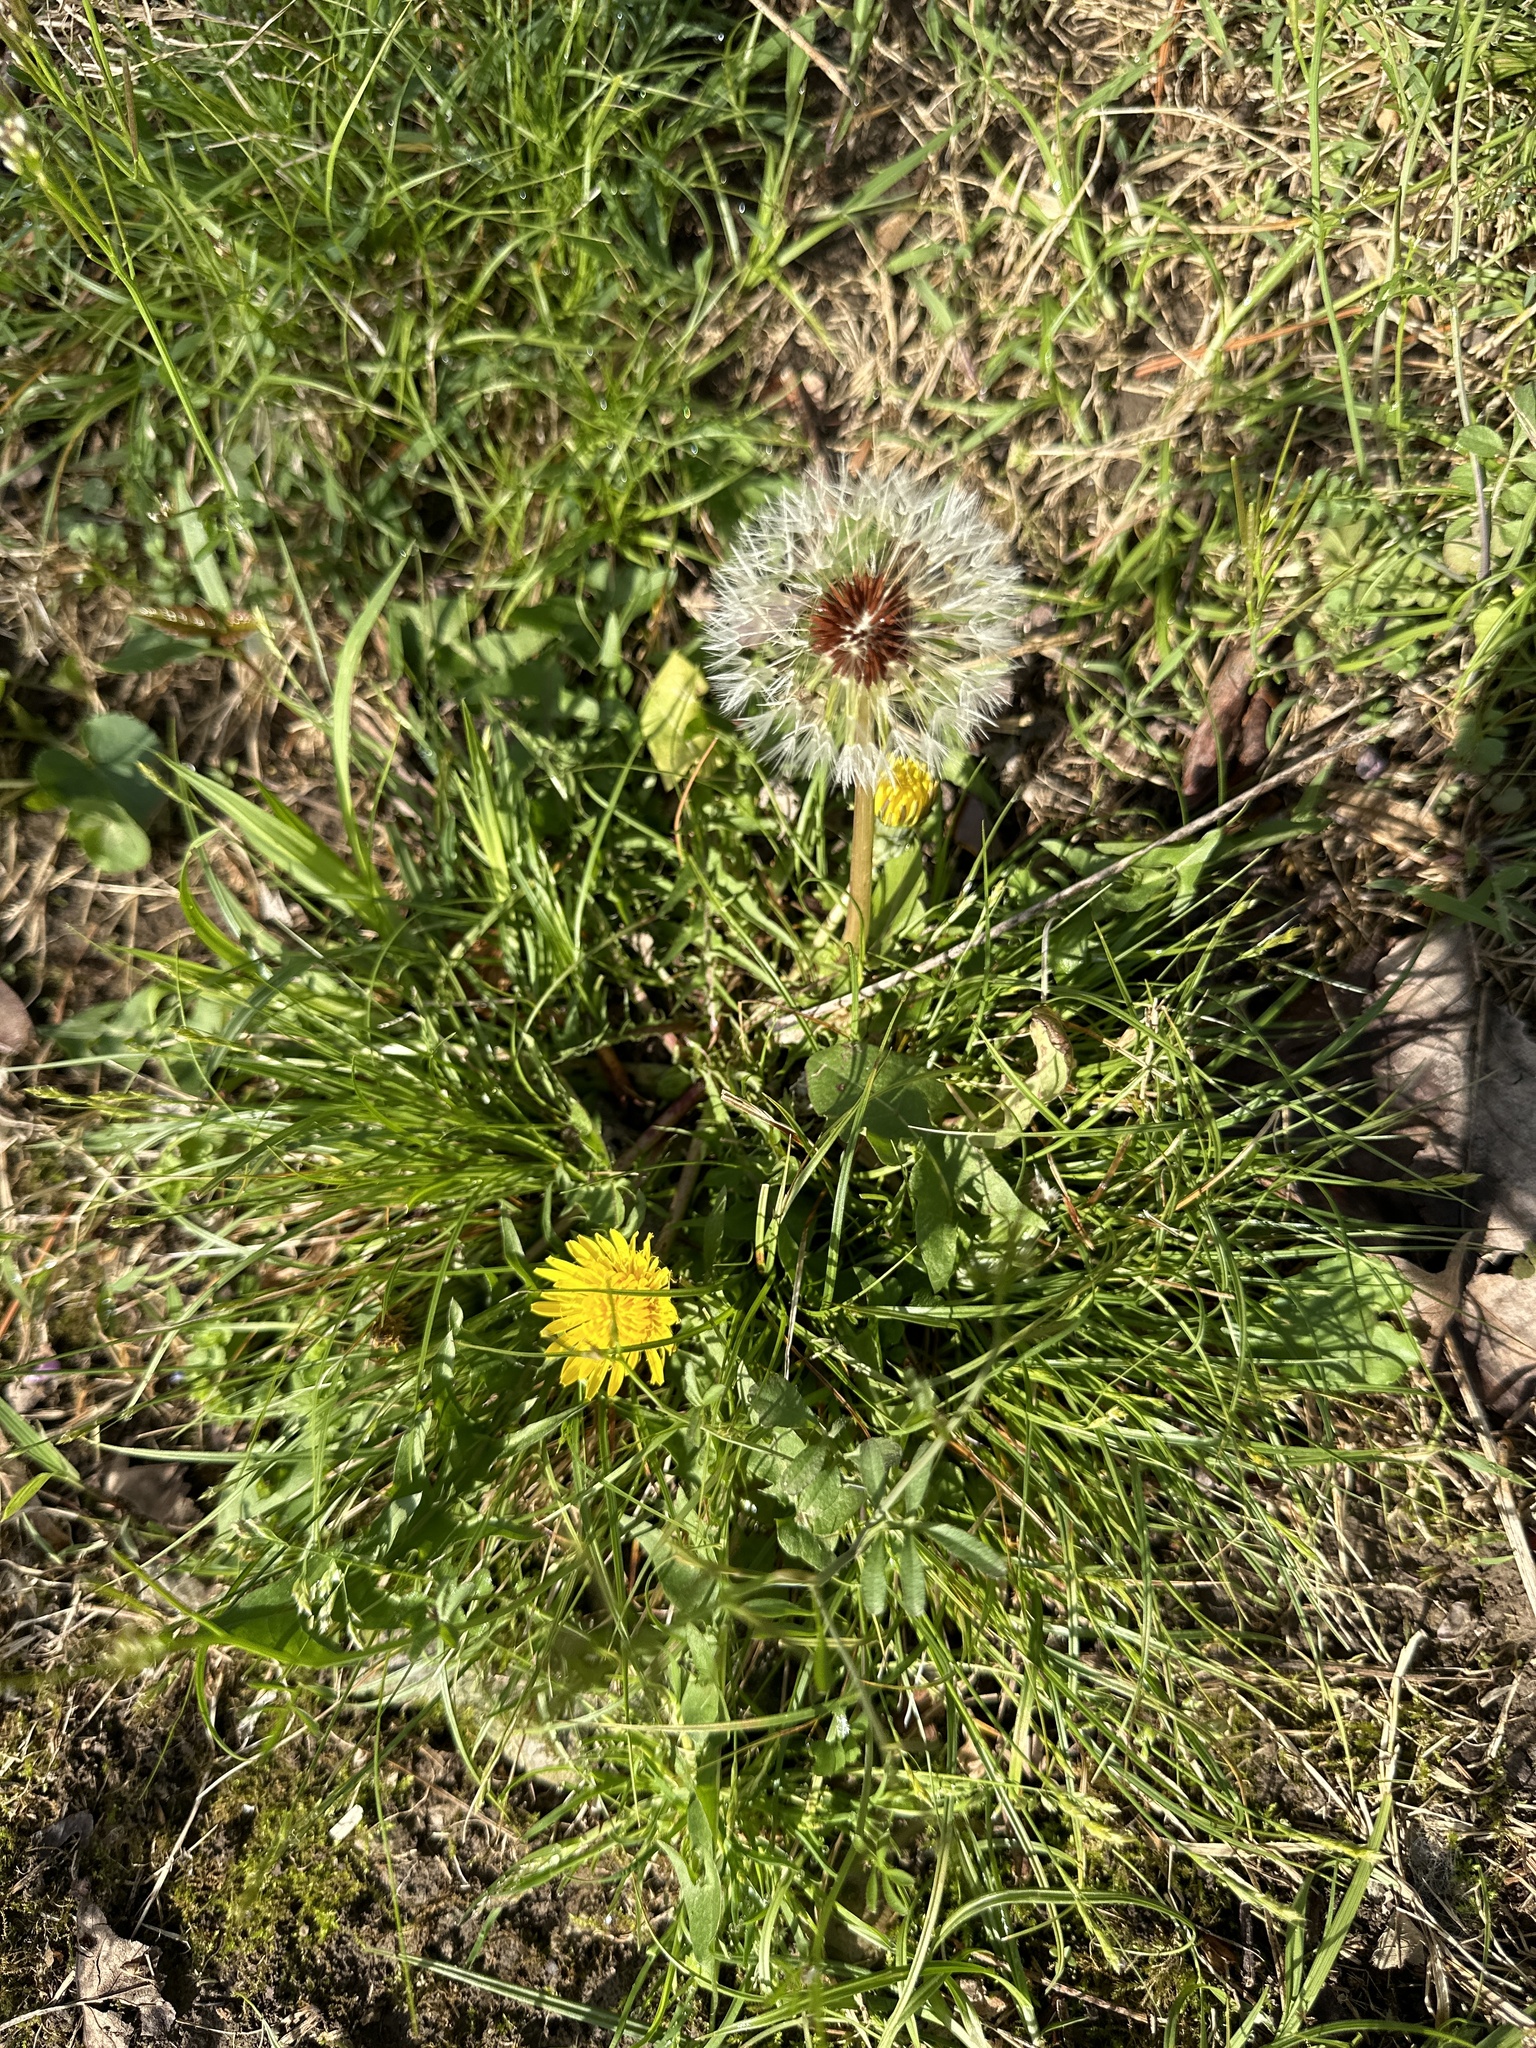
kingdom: Plantae
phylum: Tracheophyta
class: Magnoliopsida
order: Asterales
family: Asteraceae
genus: Taraxacum
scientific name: Taraxacum officinale
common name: Common dandelion
